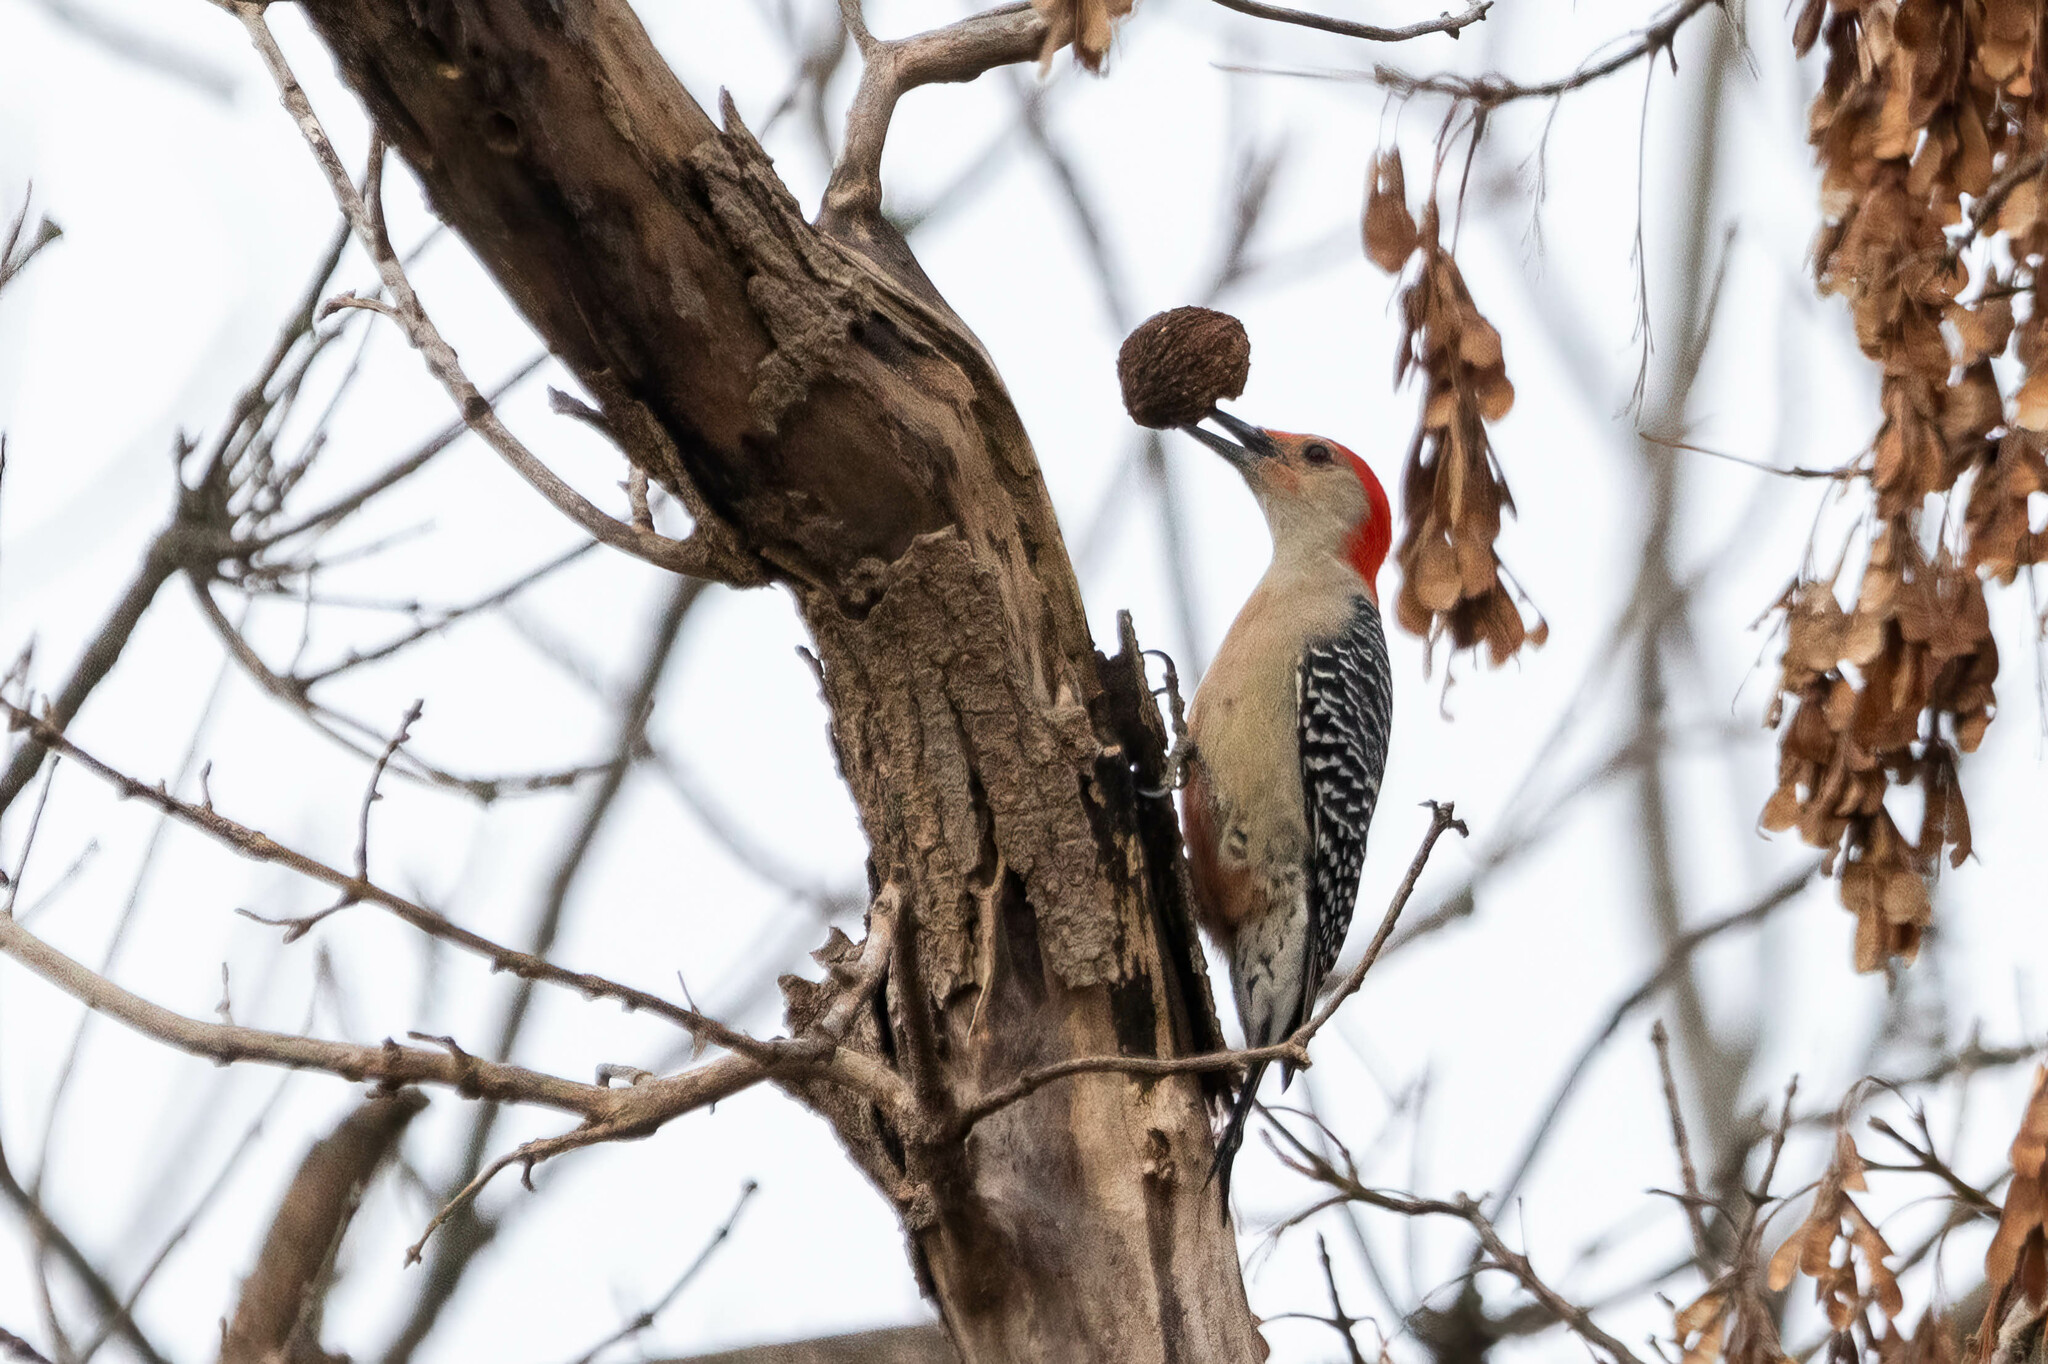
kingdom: Animalia
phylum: Chordata
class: Aves
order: Piciformes
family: Picidae
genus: Melanerpes
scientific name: Melanerpes carolinus
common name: Red-bellied woodpecker
